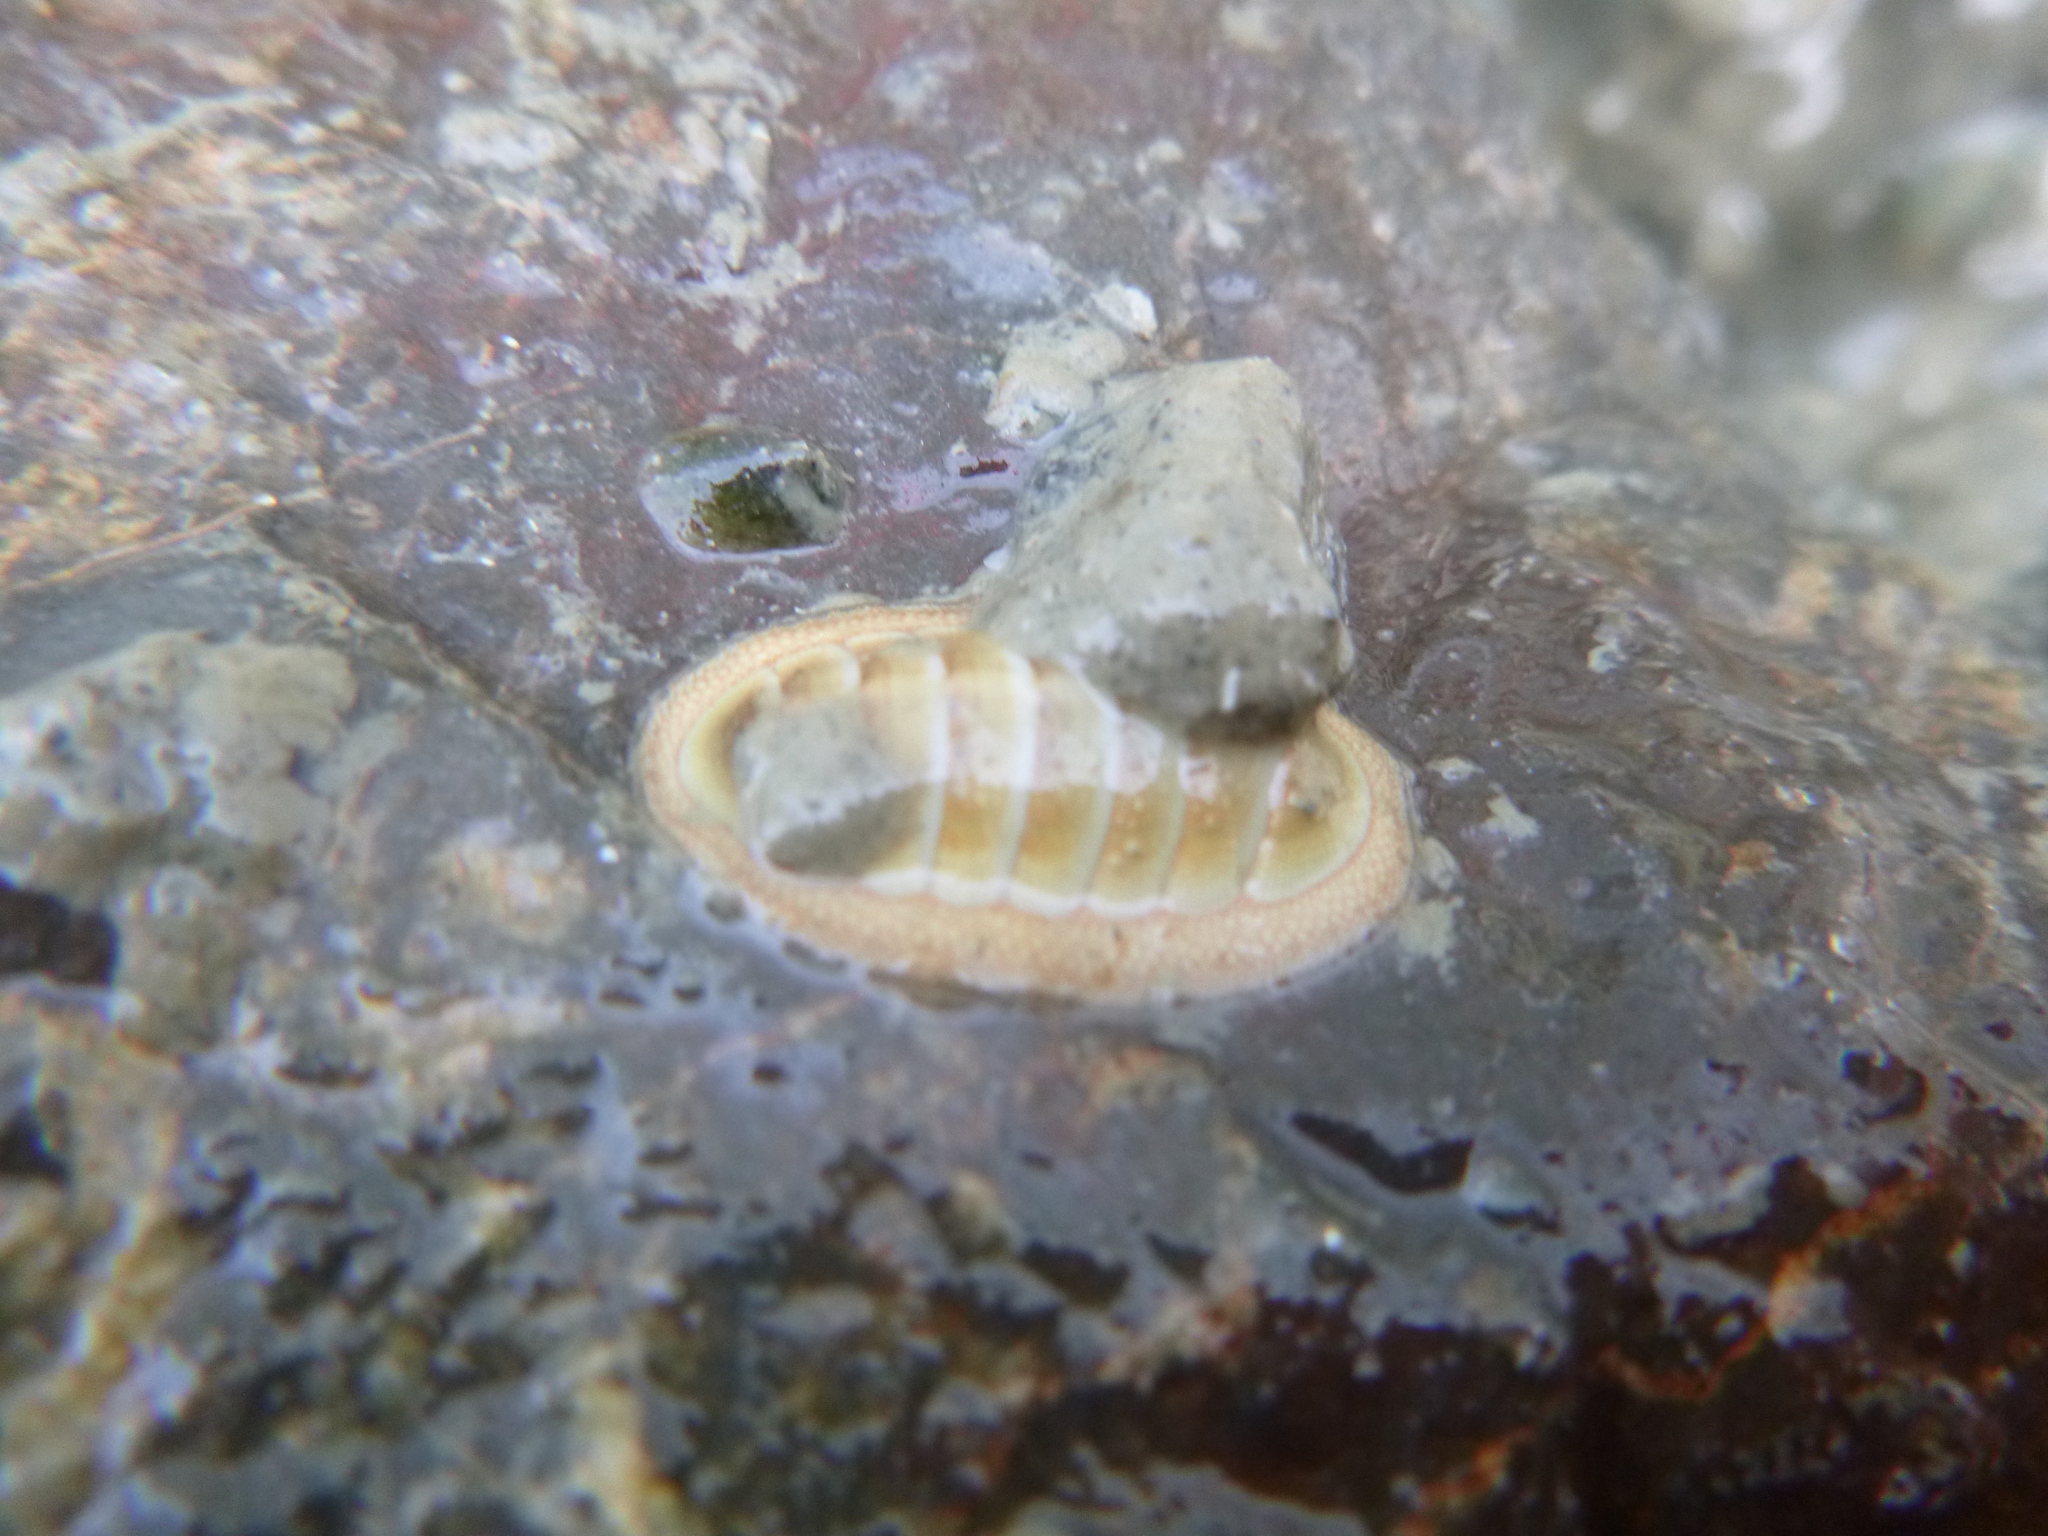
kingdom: Animalia
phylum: Mollusca
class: Polyplacophora
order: Chitonida
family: Chitonidae
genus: Chiton
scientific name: Chiton glaucus
